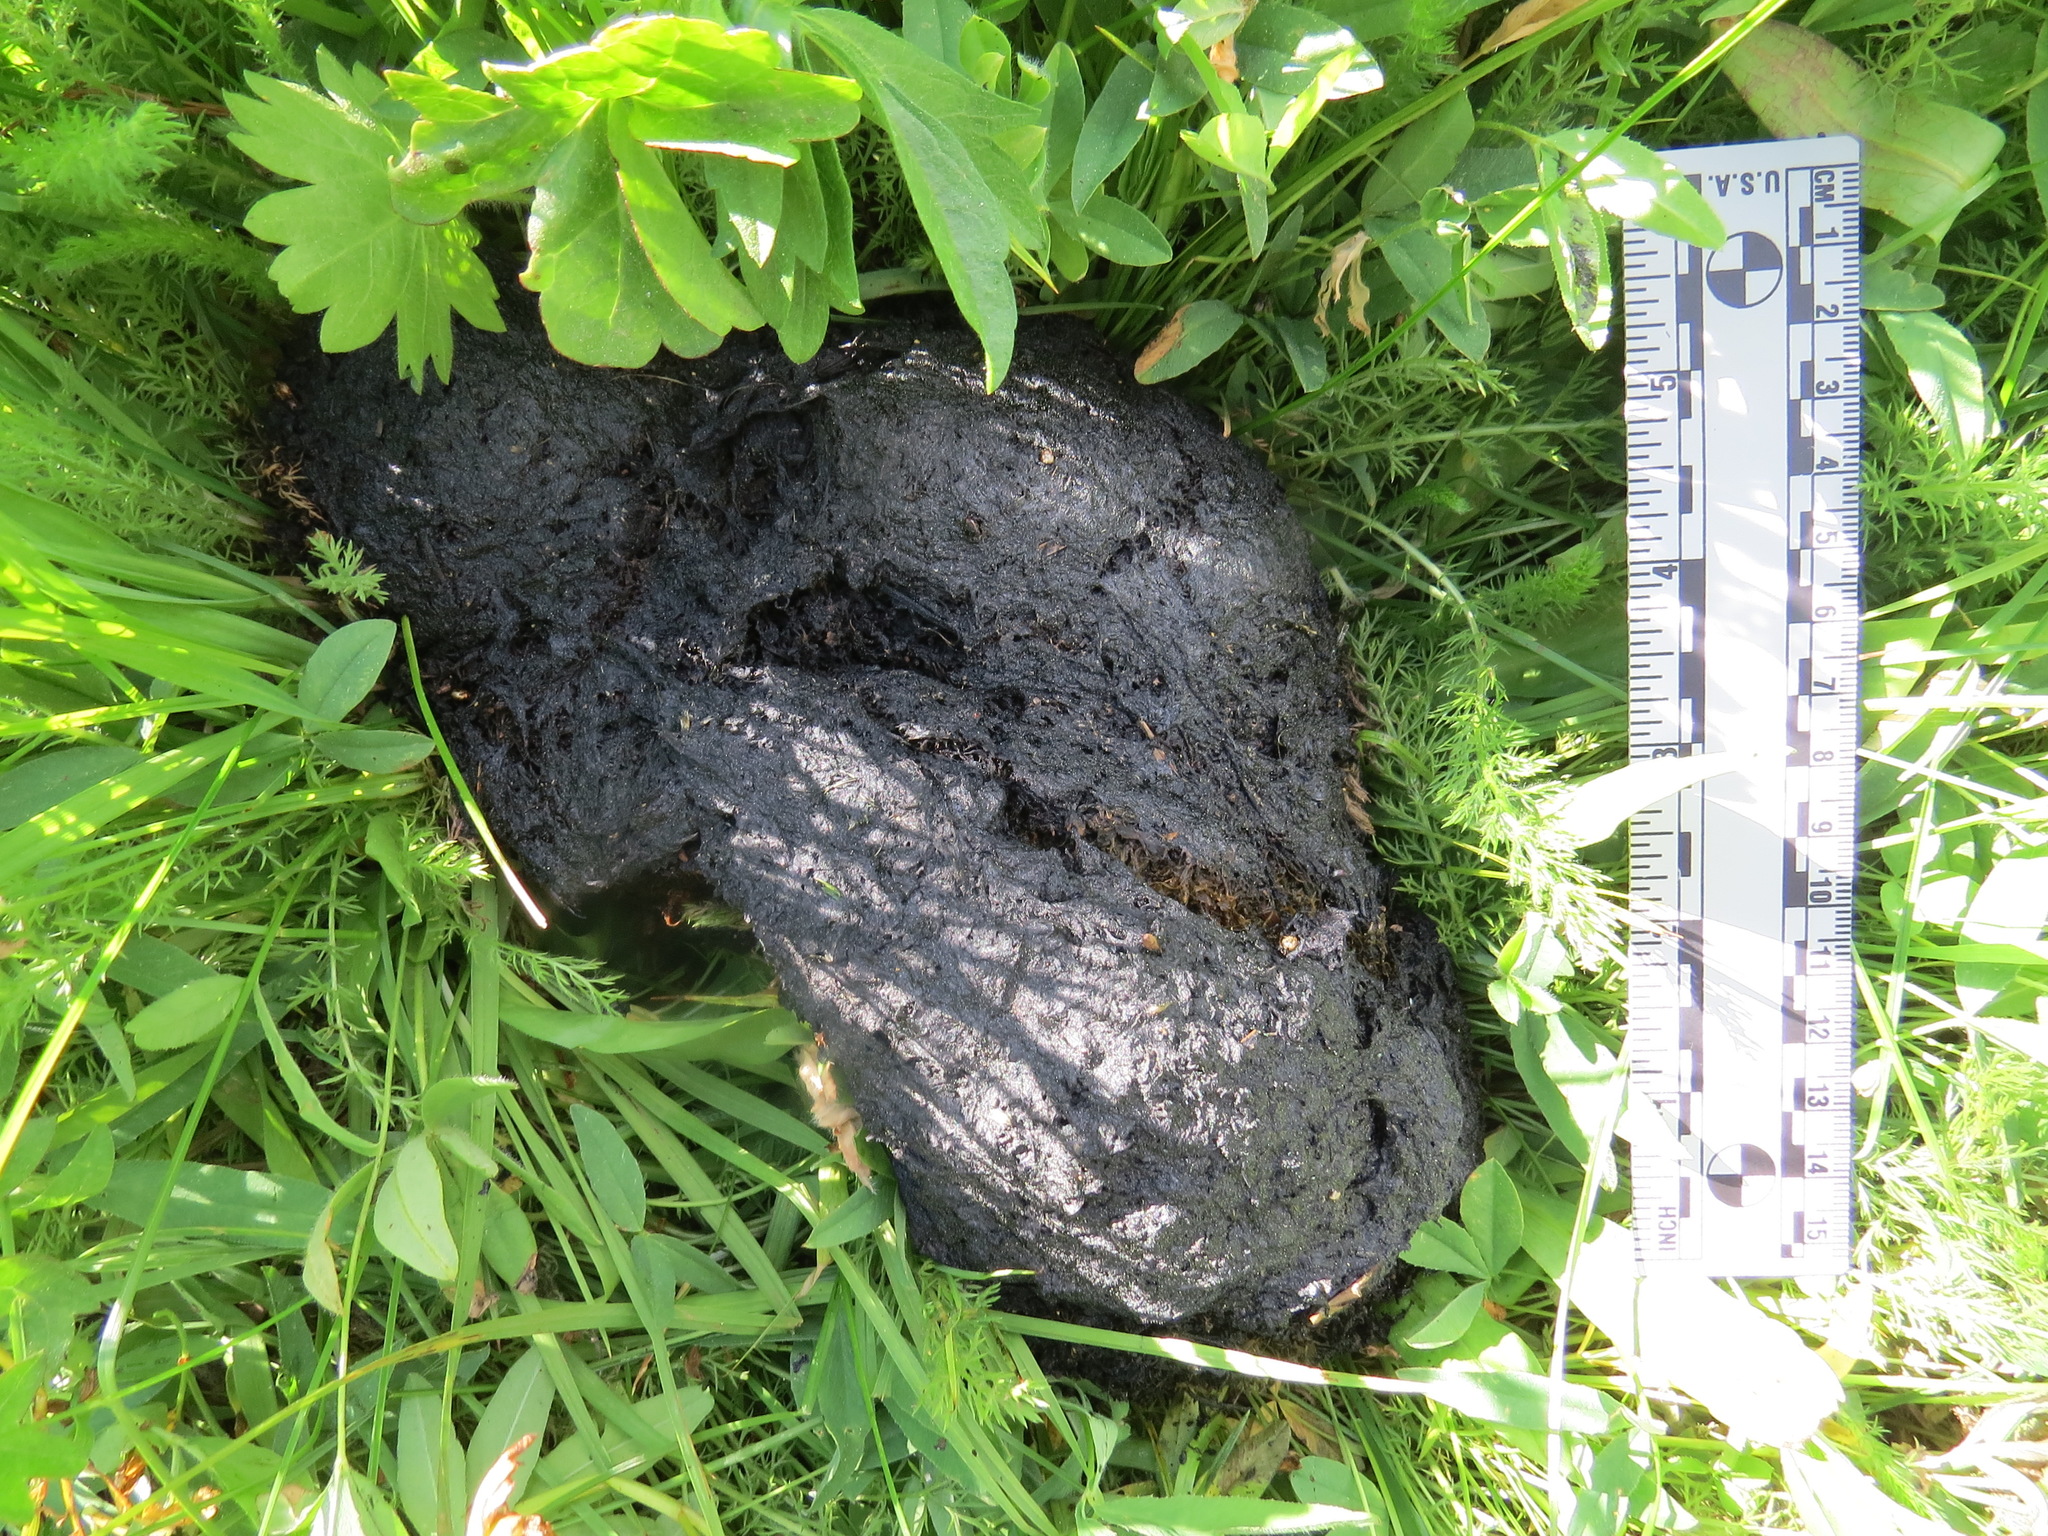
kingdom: Animalia
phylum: Chordata
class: Mammalia
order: Carnivora
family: Ursidae
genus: Ursus
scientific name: Ursus americanus
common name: American black bear
